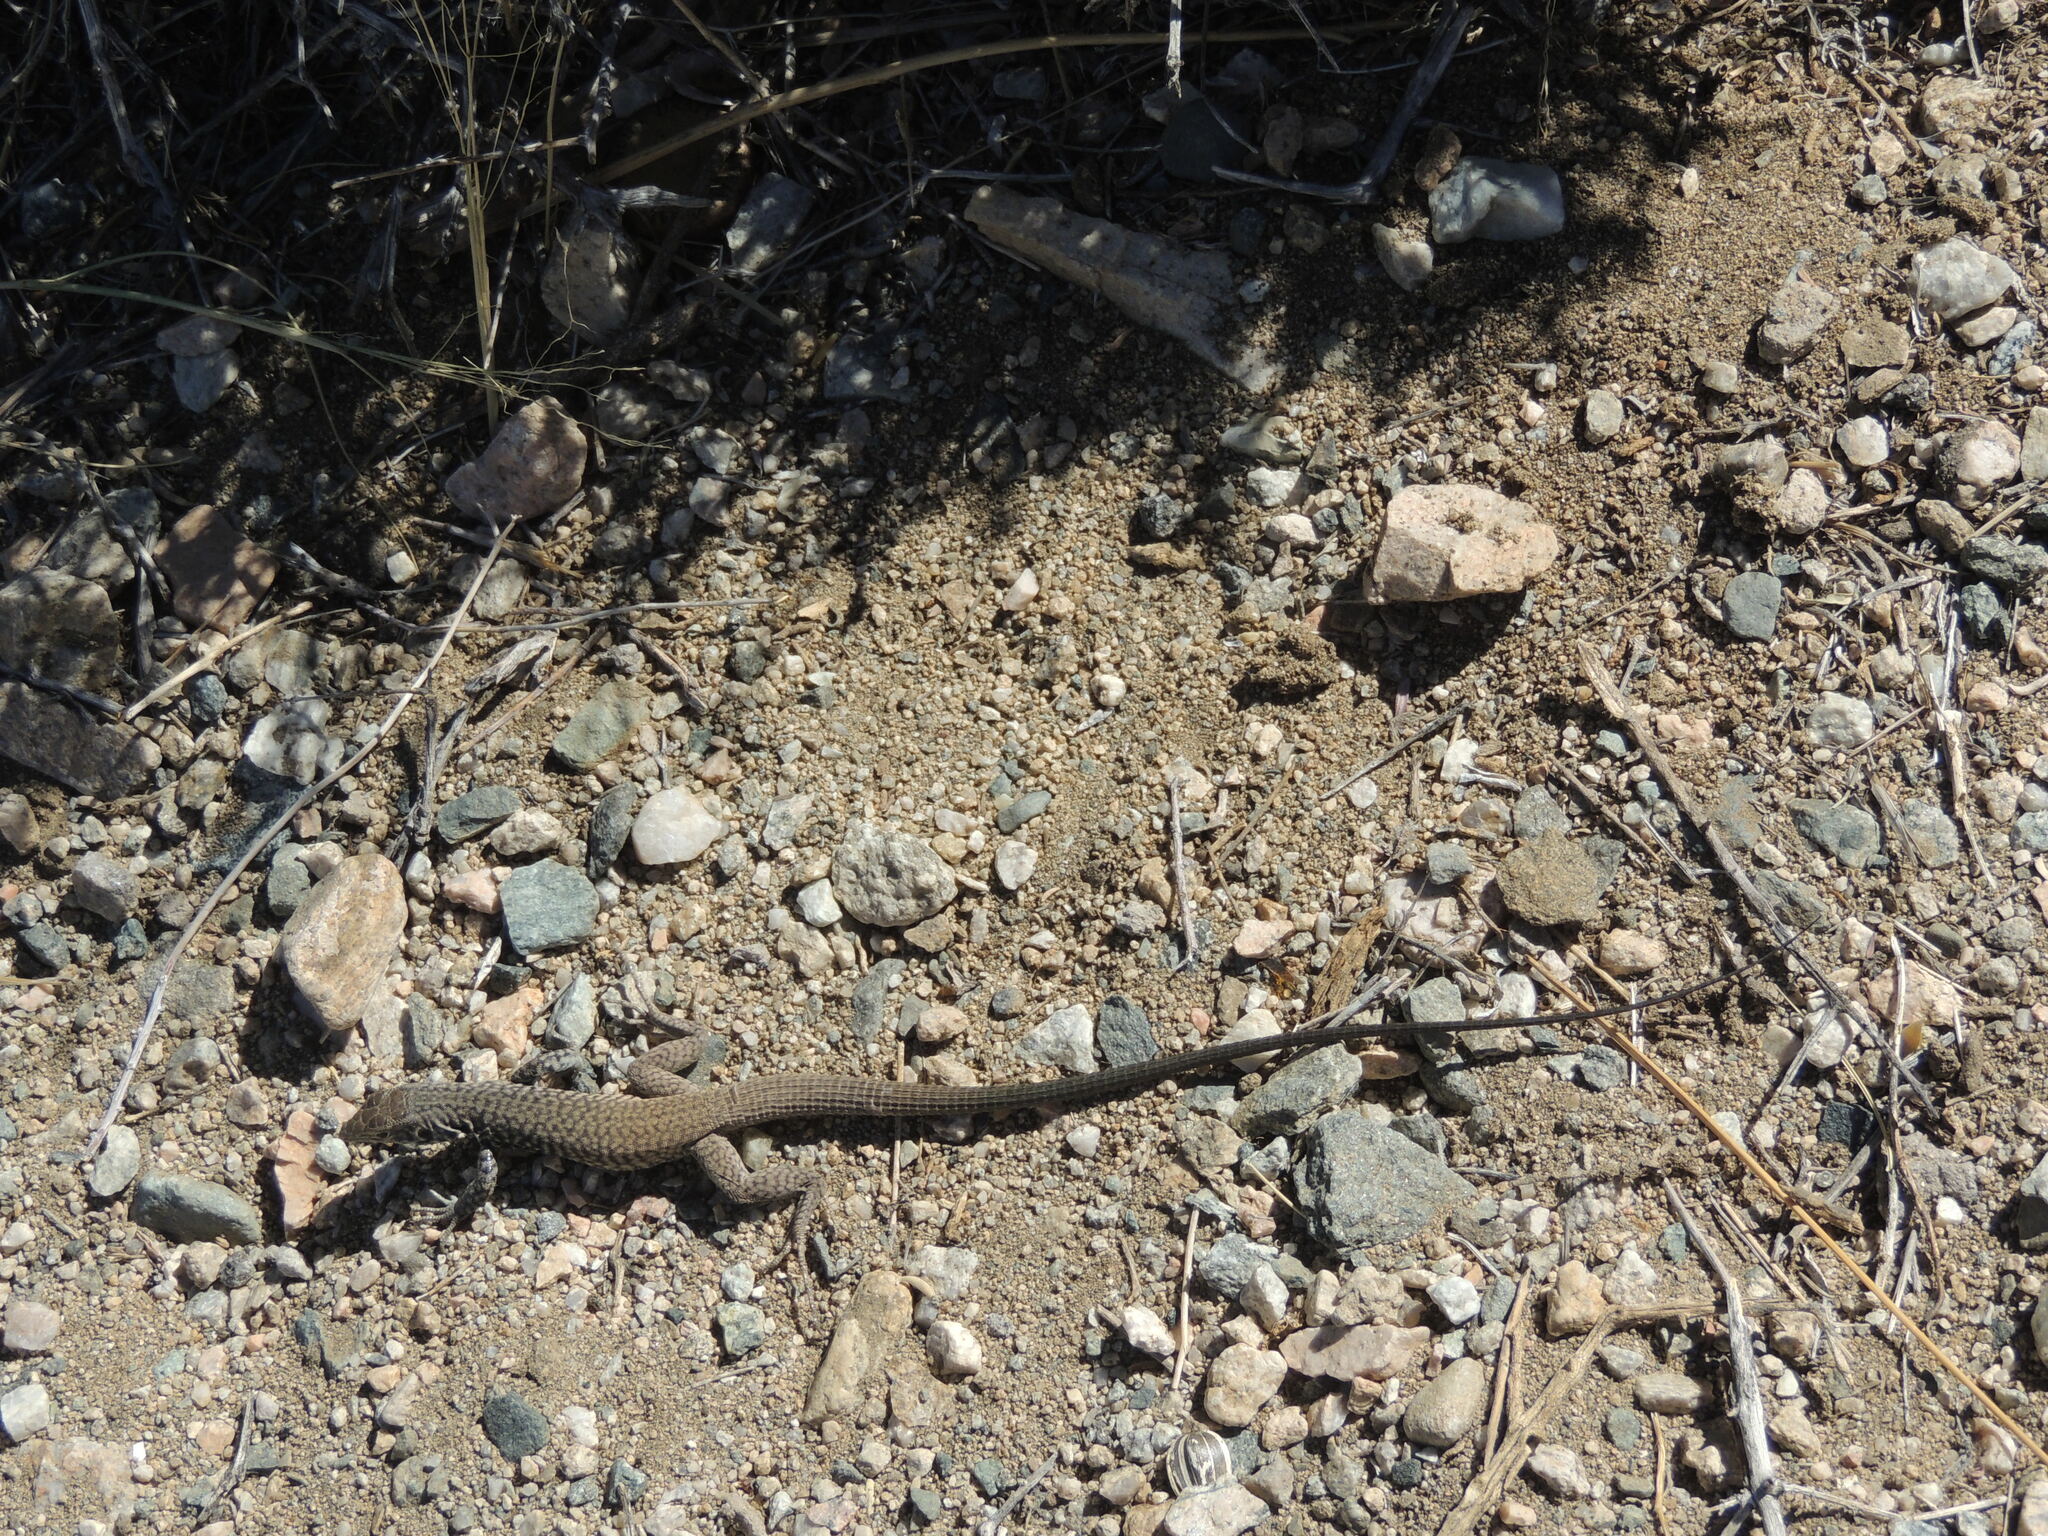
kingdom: Animalia
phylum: Chordata
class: Squamata
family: Teiidae
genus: Aspidoscelis
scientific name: Aspidoscelis tigris
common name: Tiger whiptail
